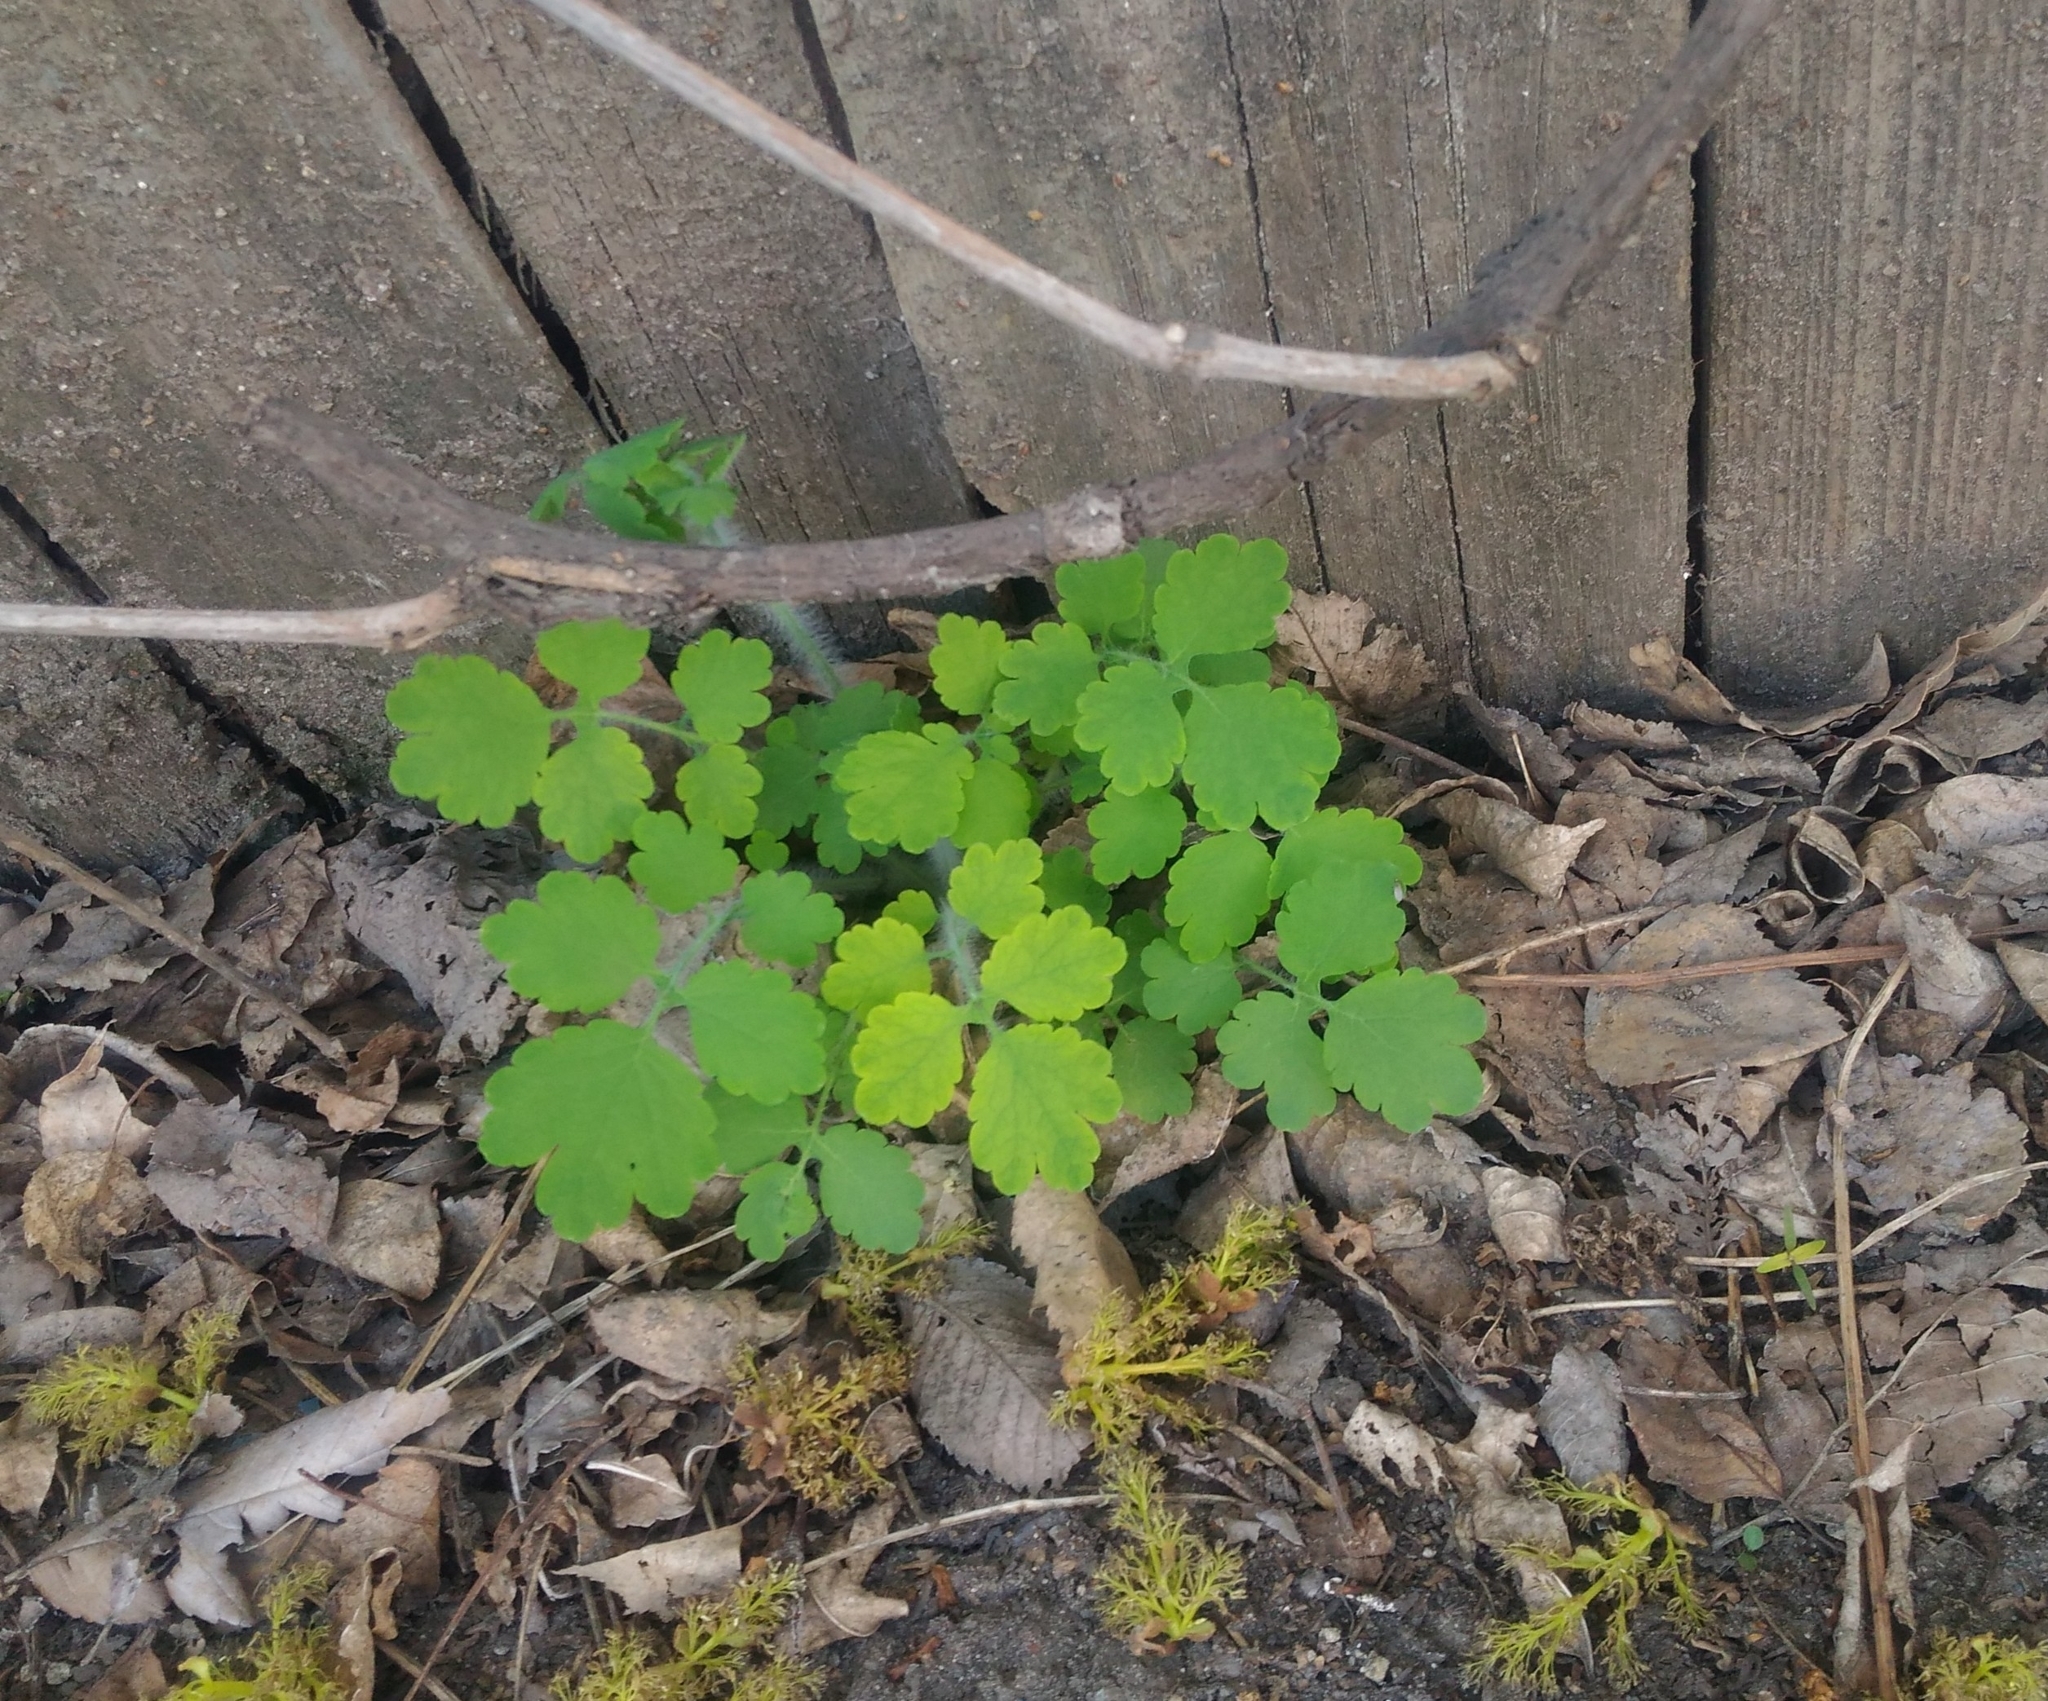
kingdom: Plantae
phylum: Tracheophyta
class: Magnoliopsida
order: Ranunculales
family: Papaveraceae
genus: Chelidonium
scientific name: Chelidonium majus
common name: Greater celandine
